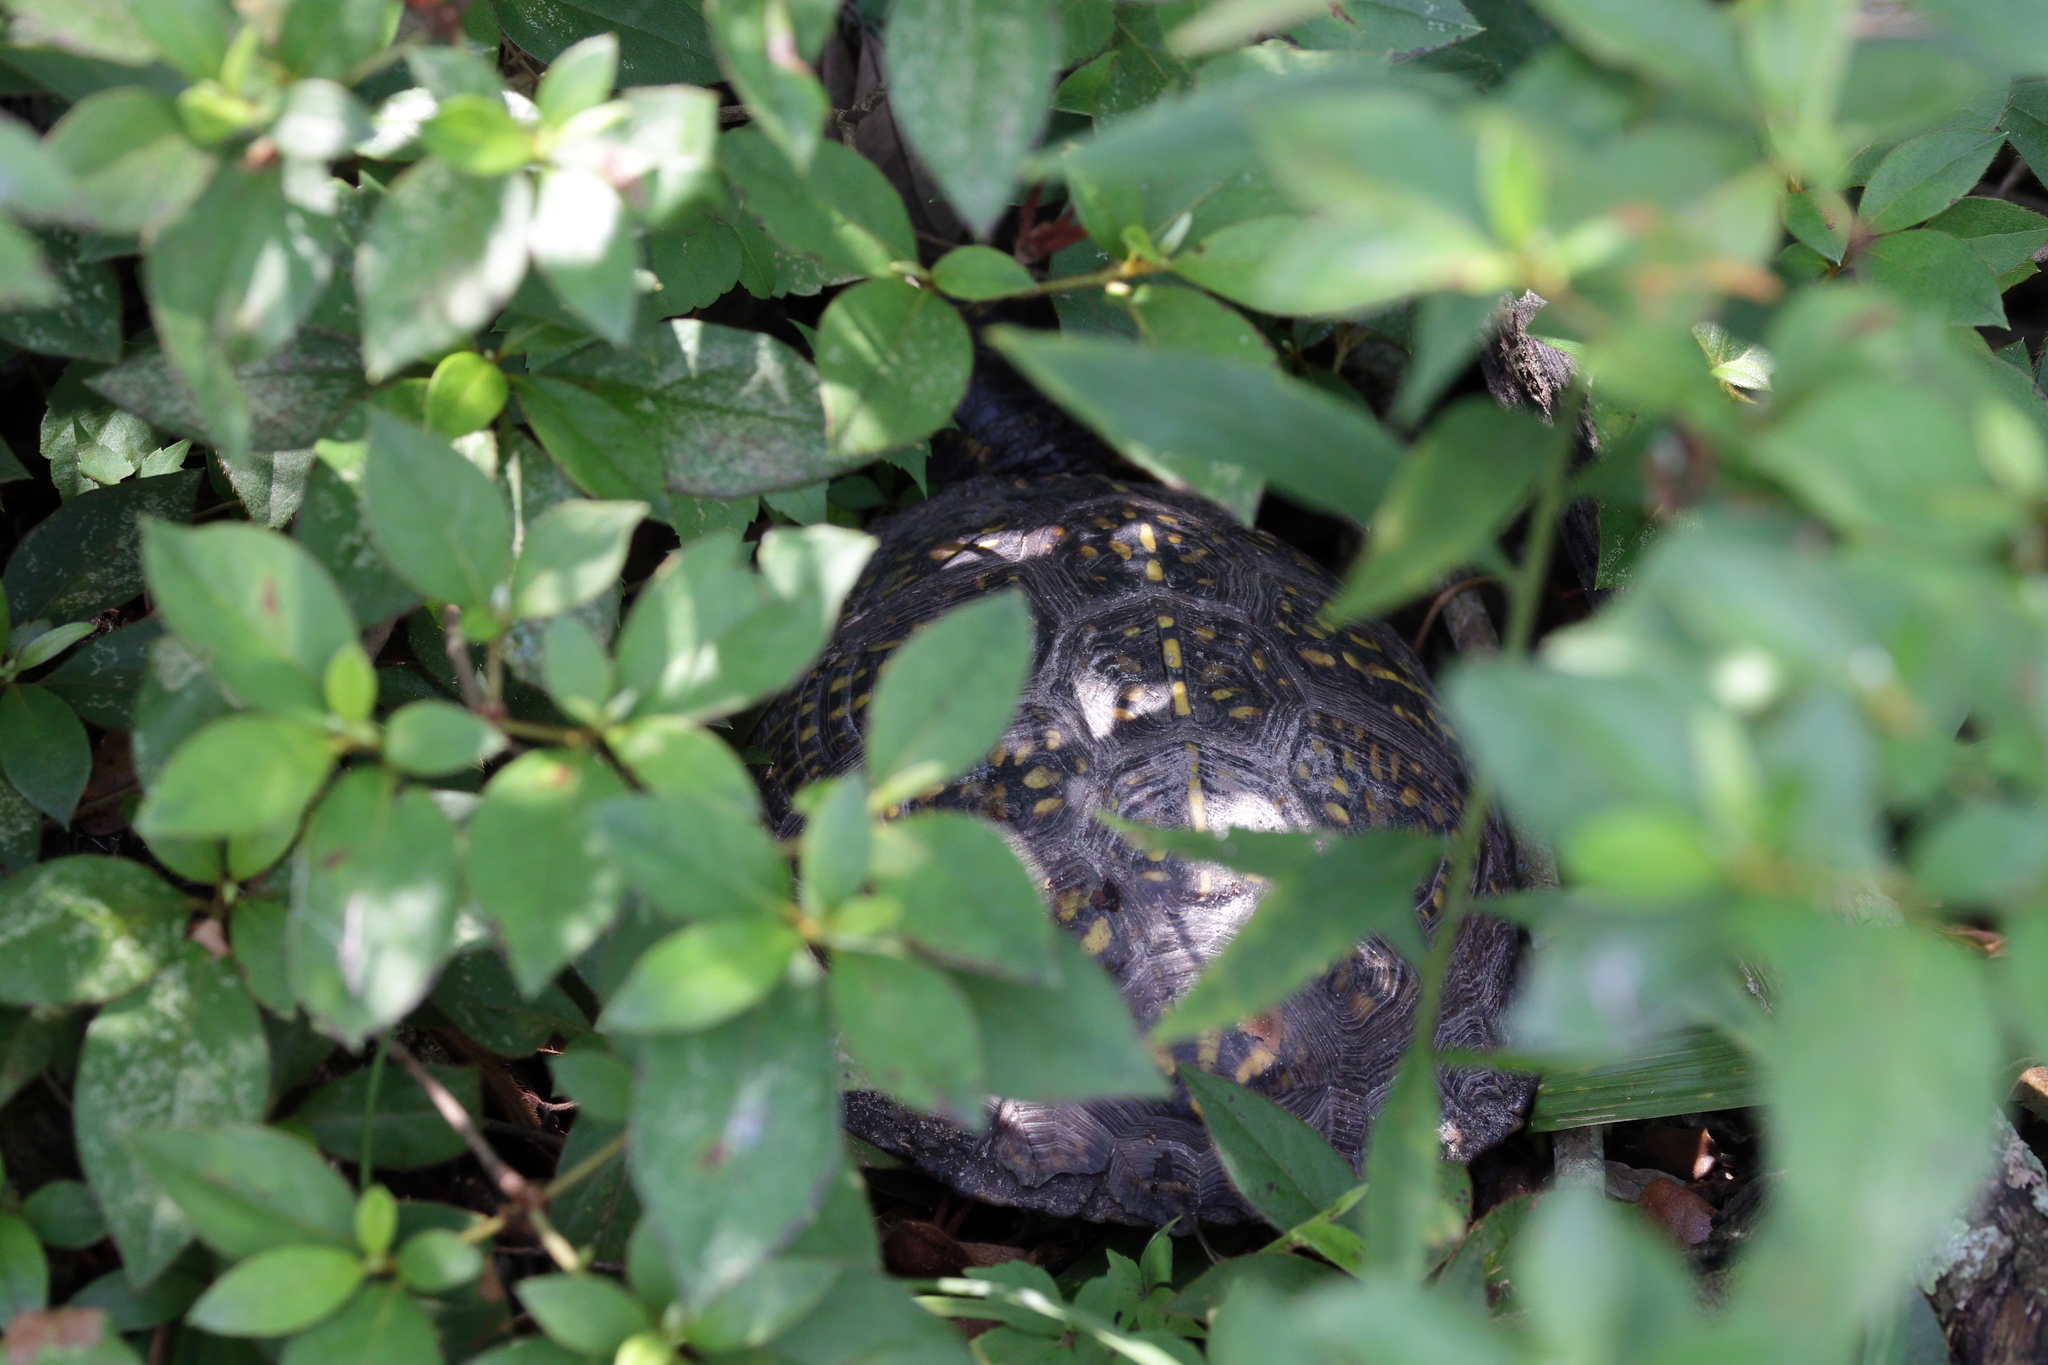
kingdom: Animalia
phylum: Chordata
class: Testudines
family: Emydidae
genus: Terrapene
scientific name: Terrapene carolina
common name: Common box turtle
